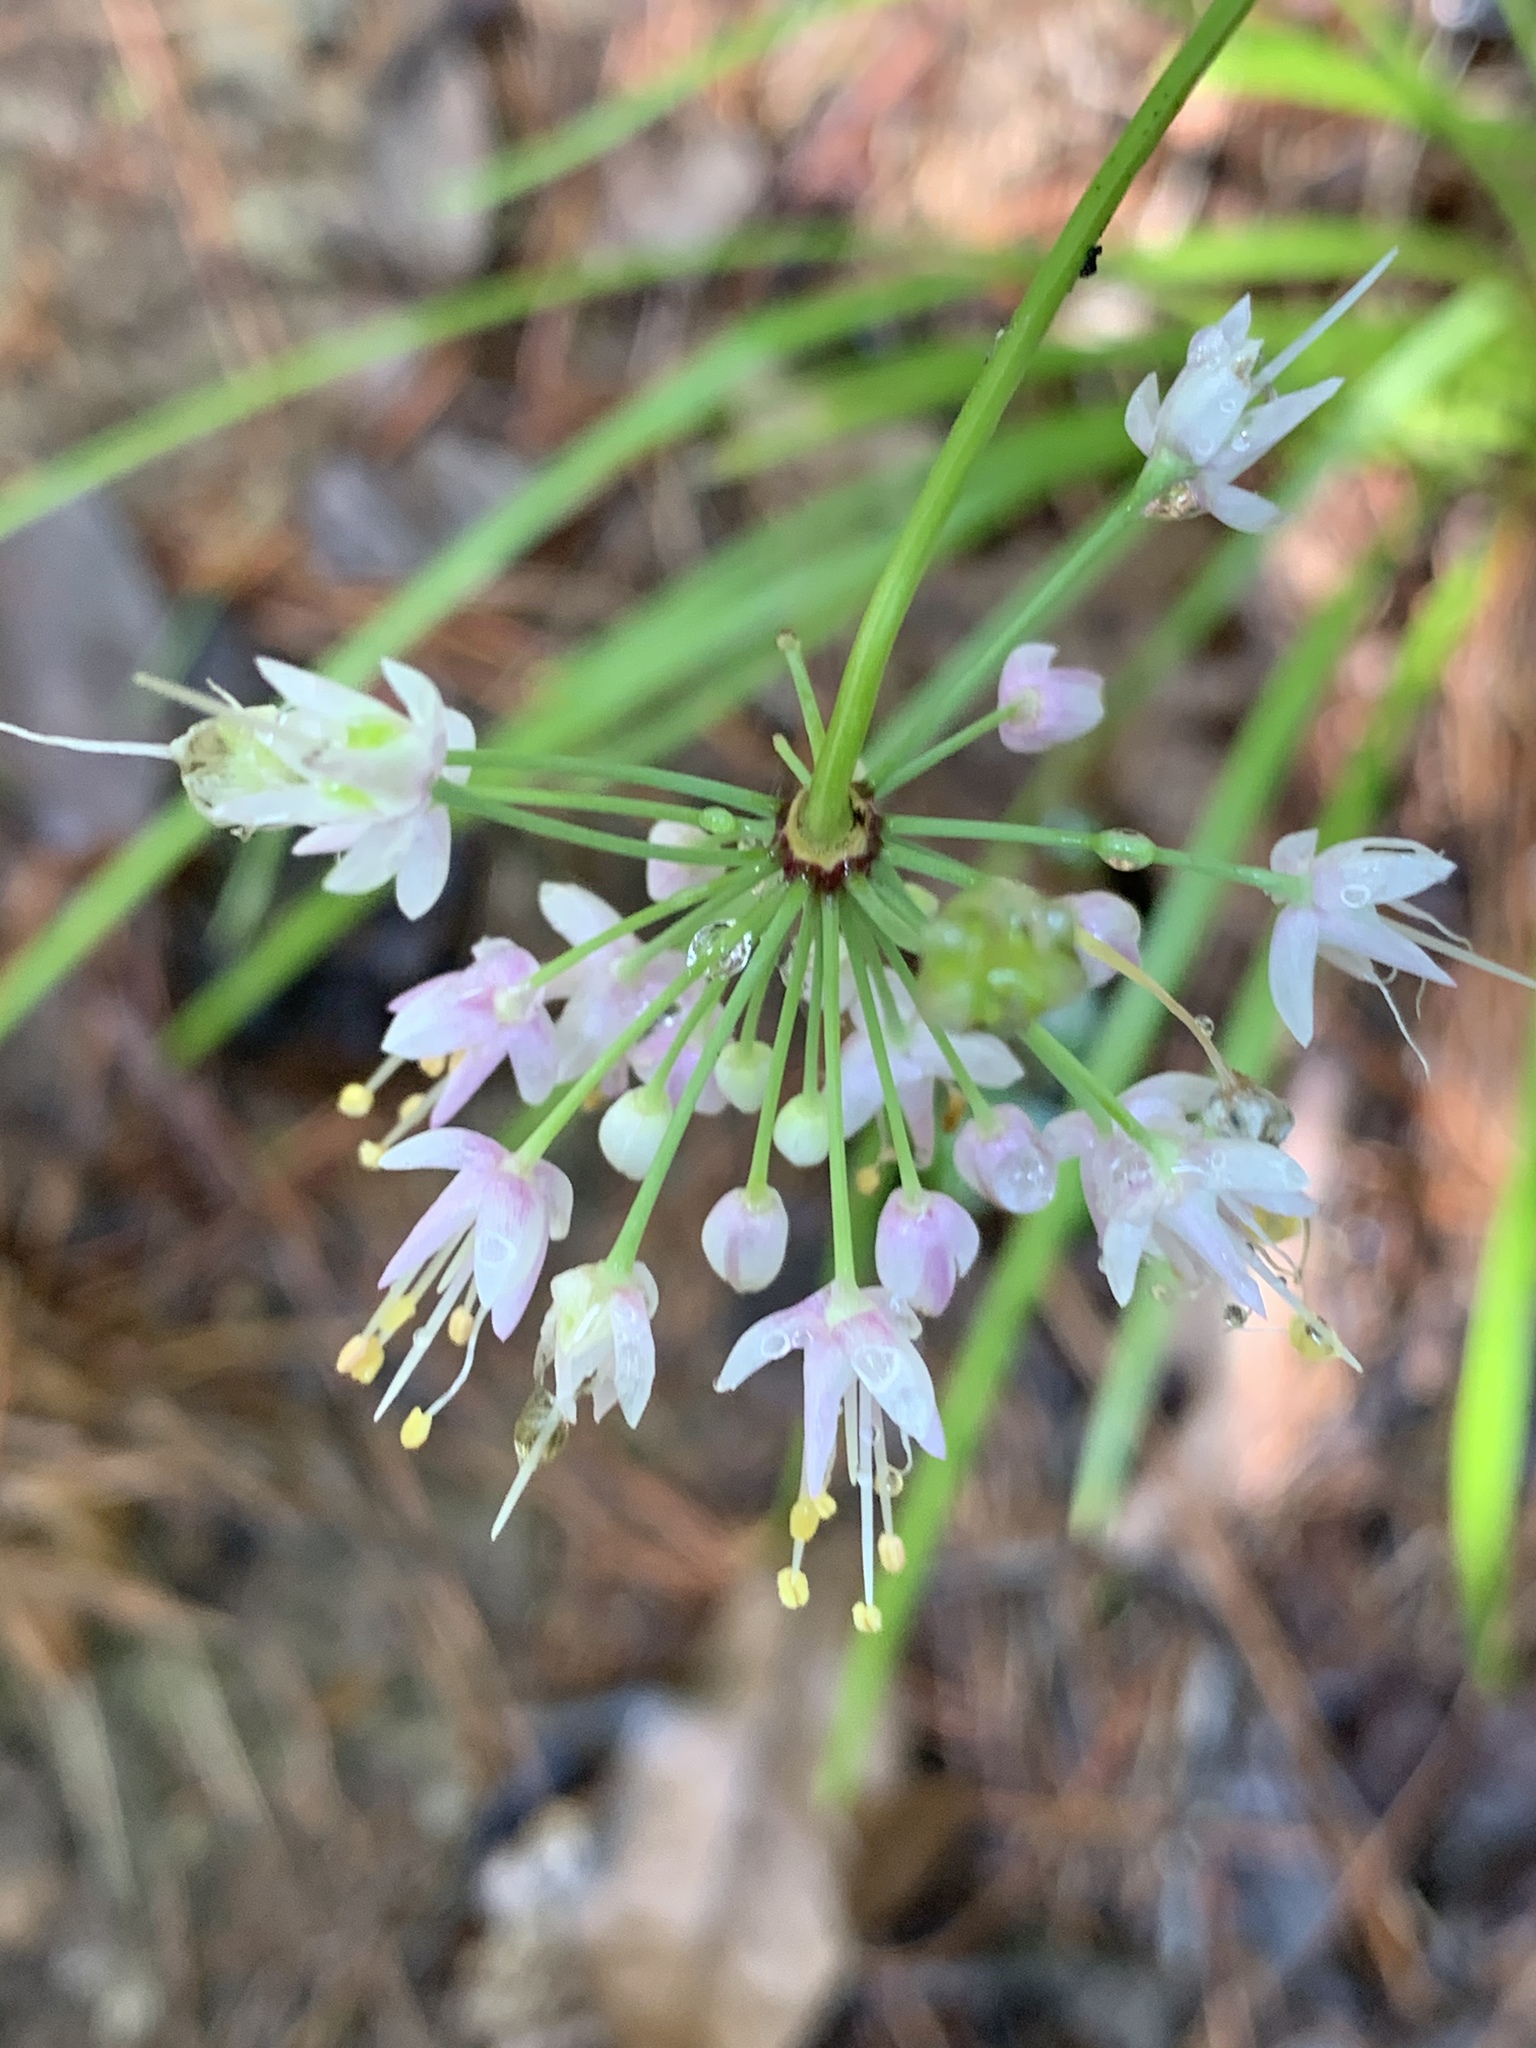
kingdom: Plantae
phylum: Tracheophyta
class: Liliopsida
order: Asparagales
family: Amaryllidaceae
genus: Allium
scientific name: Allium cernuum
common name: Nodding onion
